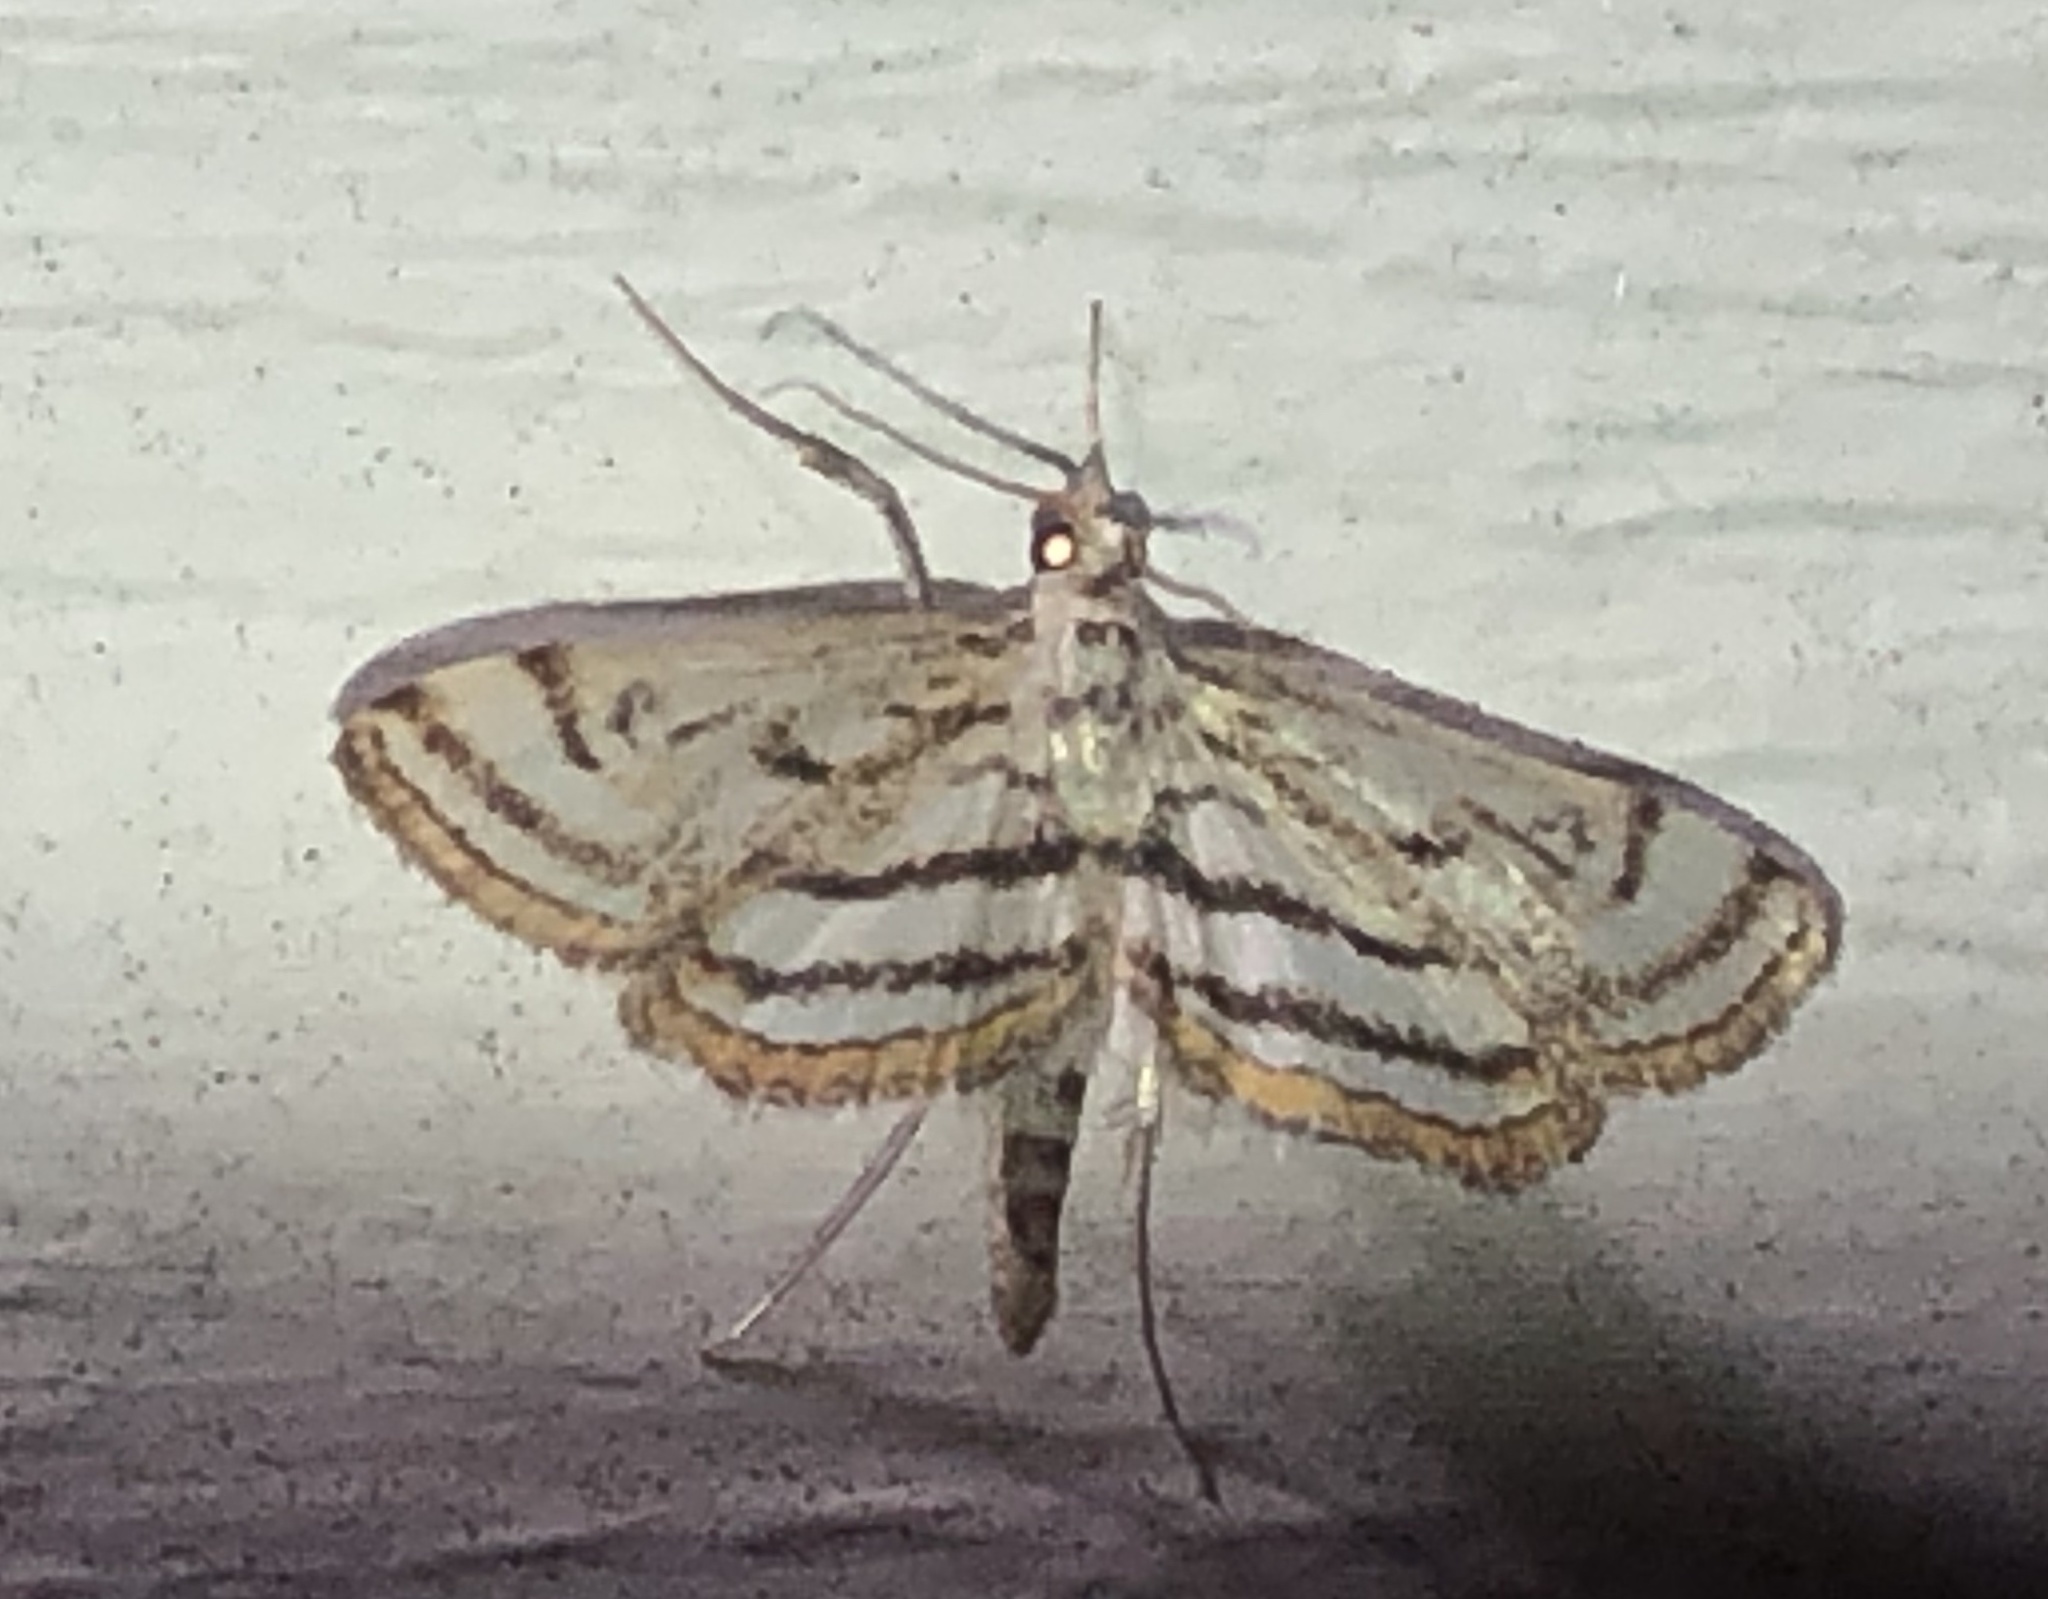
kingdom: Animalia
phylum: Arthropoda
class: Insecta
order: Lepidoptera
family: Crambidae
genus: Parapoynx
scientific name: Parapoynx badiusalis
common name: Chestnut-marked pondweed moth
